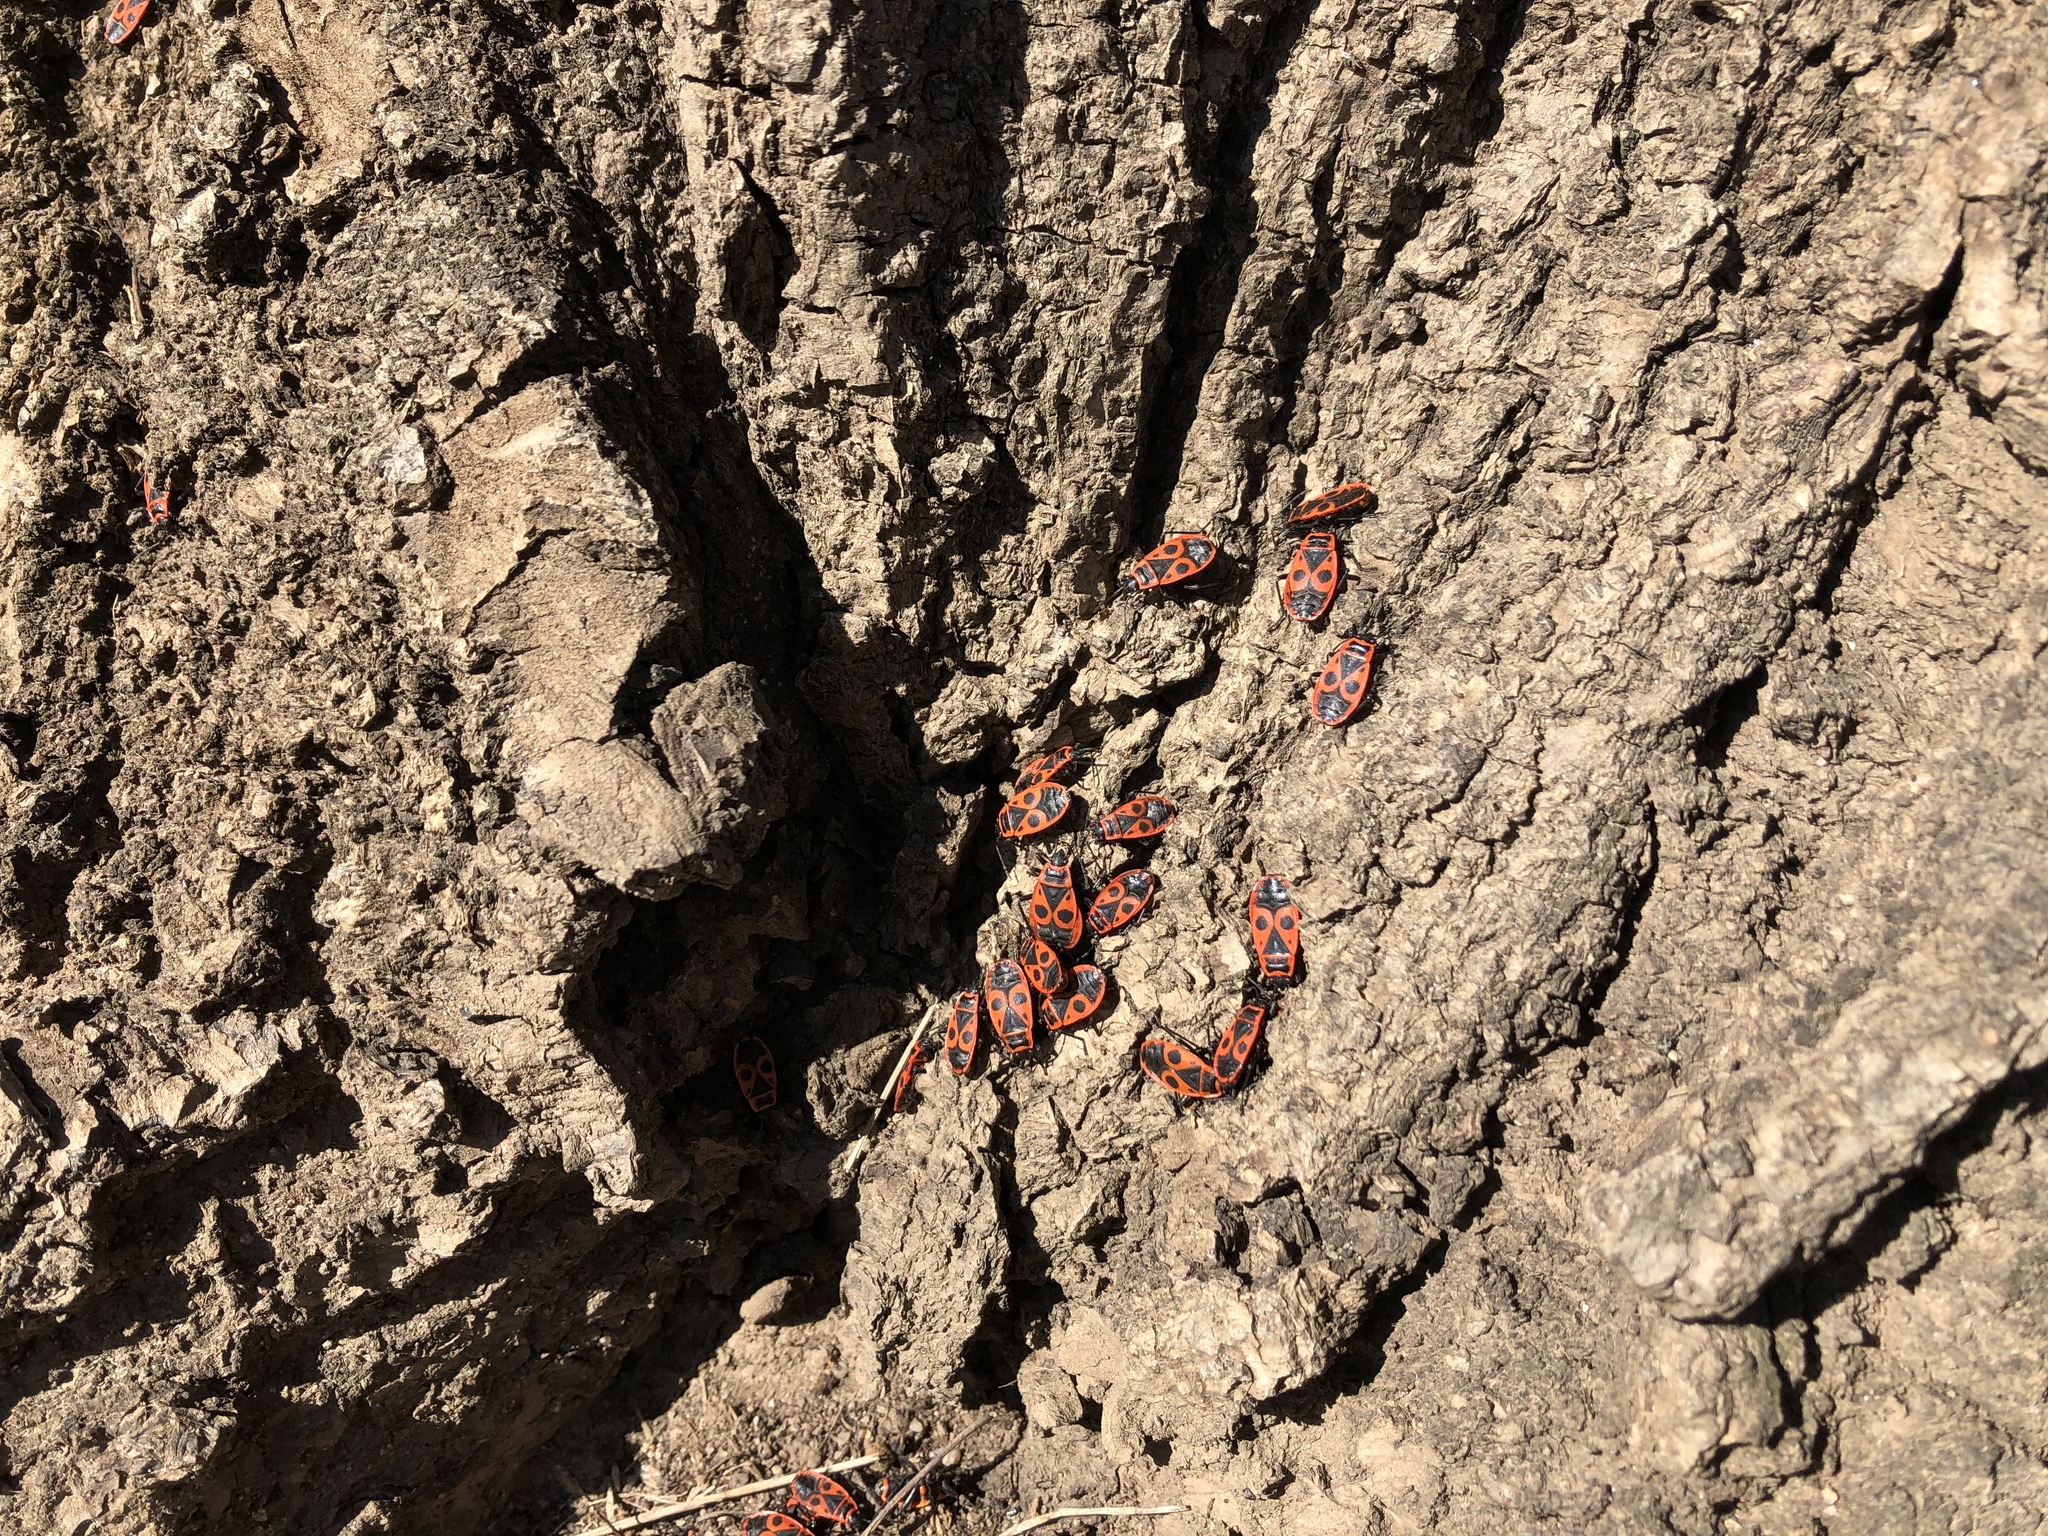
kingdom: Animalia
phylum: Arthropoda
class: Insecta
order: Hemiptera
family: Pyrrhocoridae
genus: Pyrrhocoris
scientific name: Pyrrhocoris apterus
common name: Firebug
